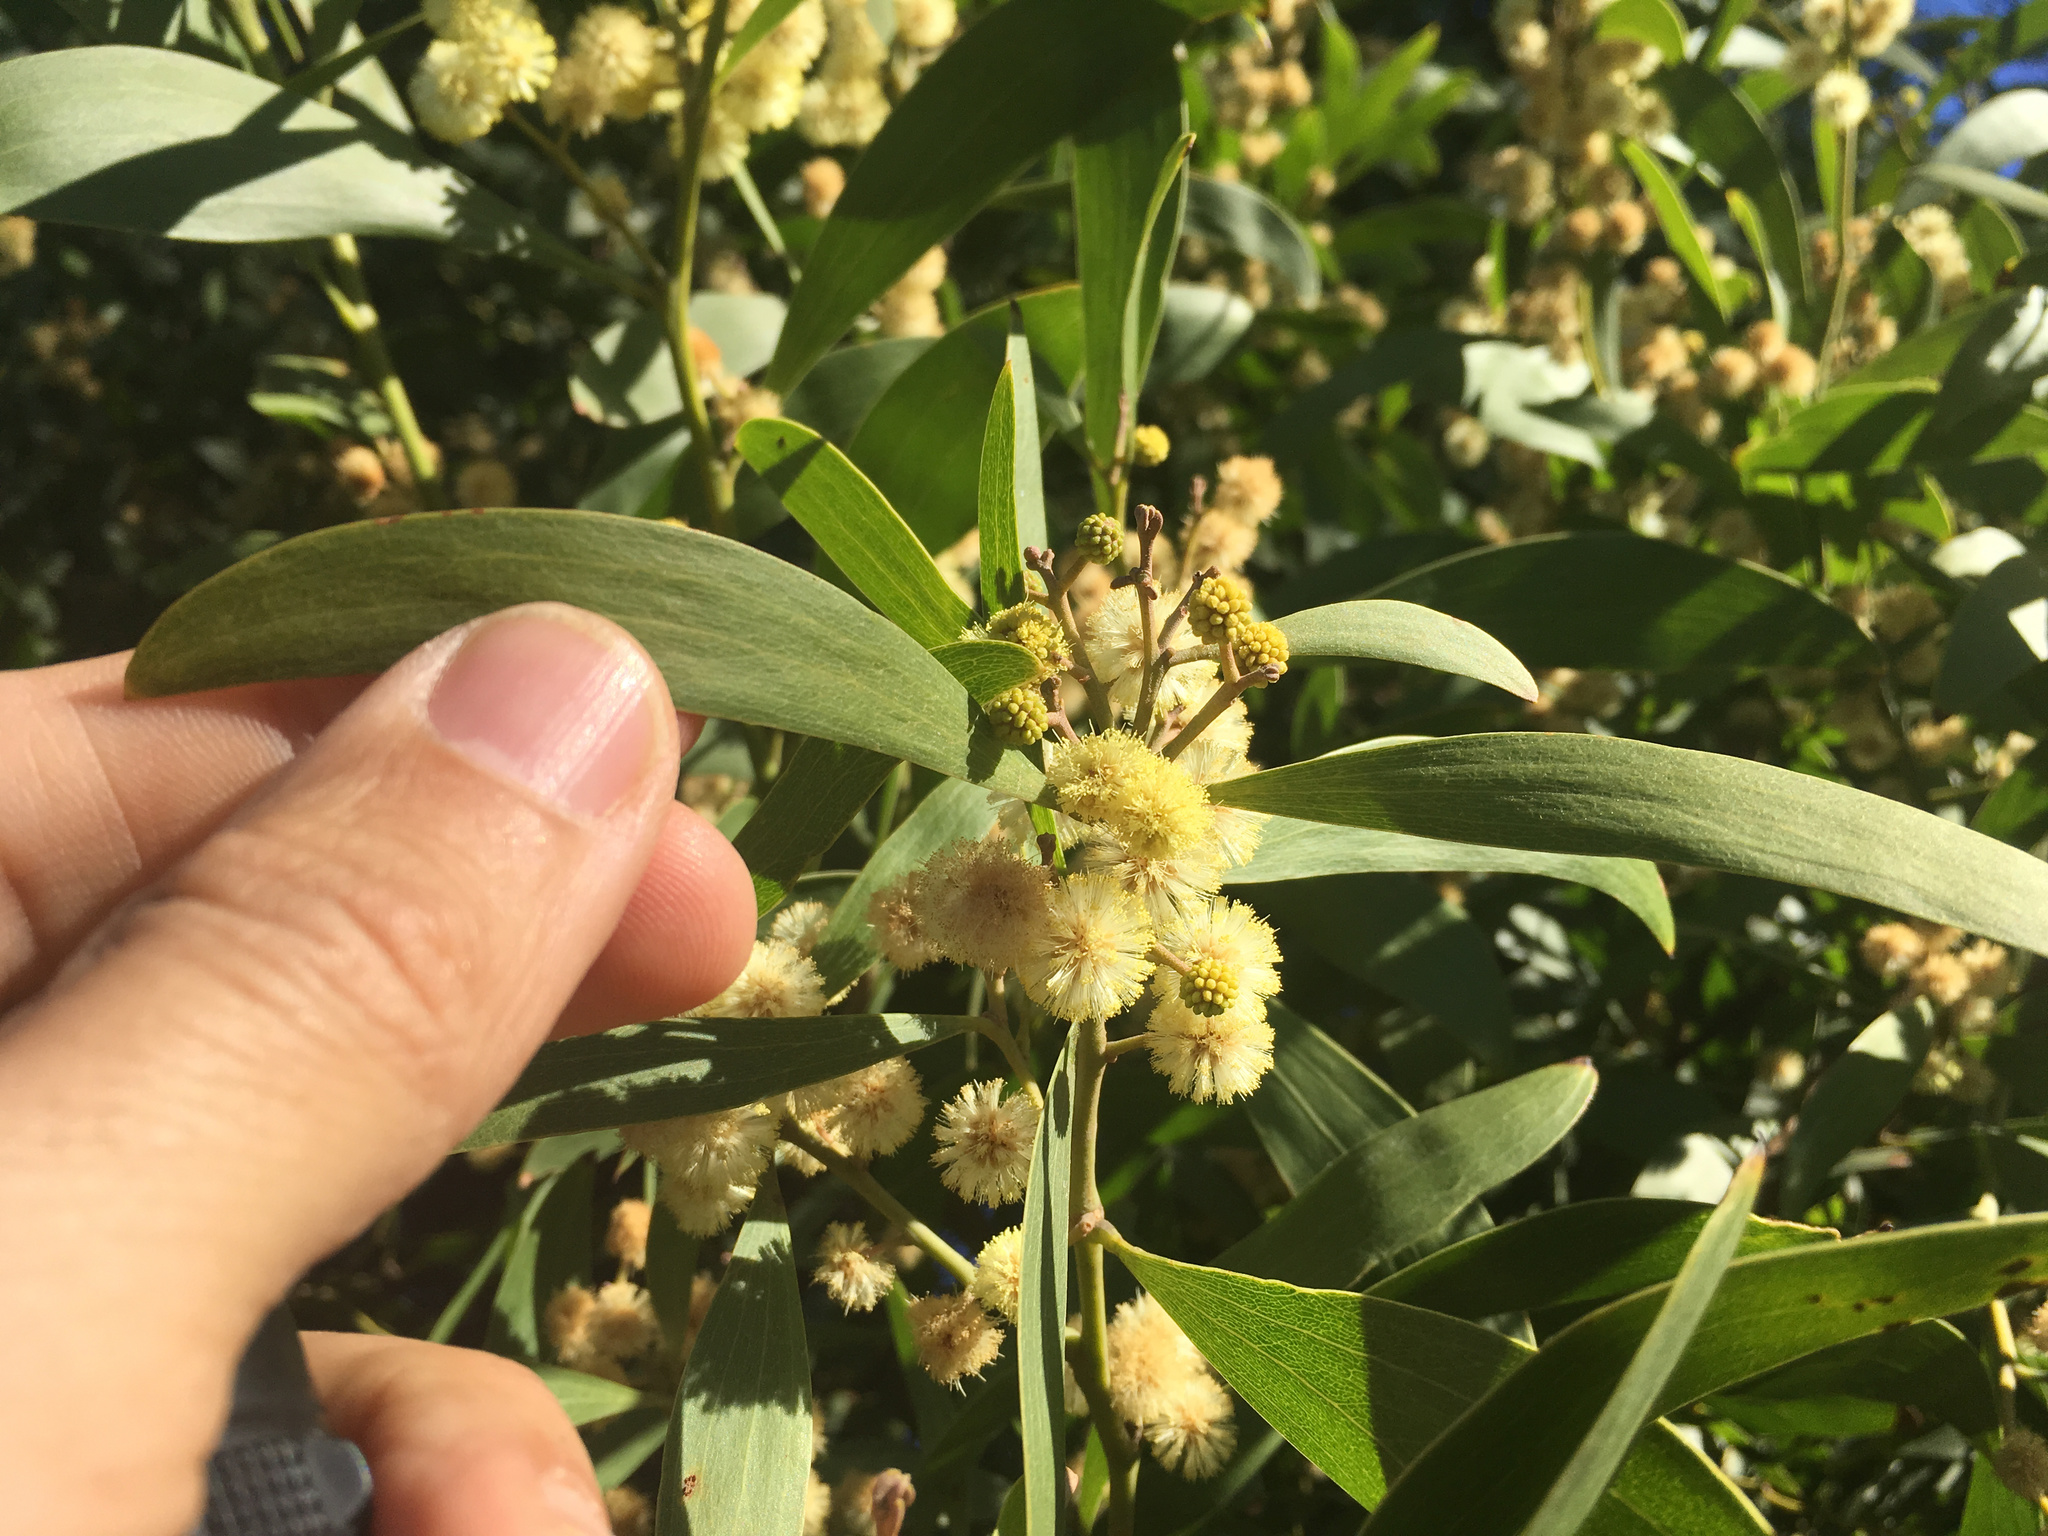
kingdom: Plantae
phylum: Tracheophyta
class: Magnoliopsida
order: Fabales
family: Fabaceae
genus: Acacia
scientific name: Acacia melanoxylon
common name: Blackwood
